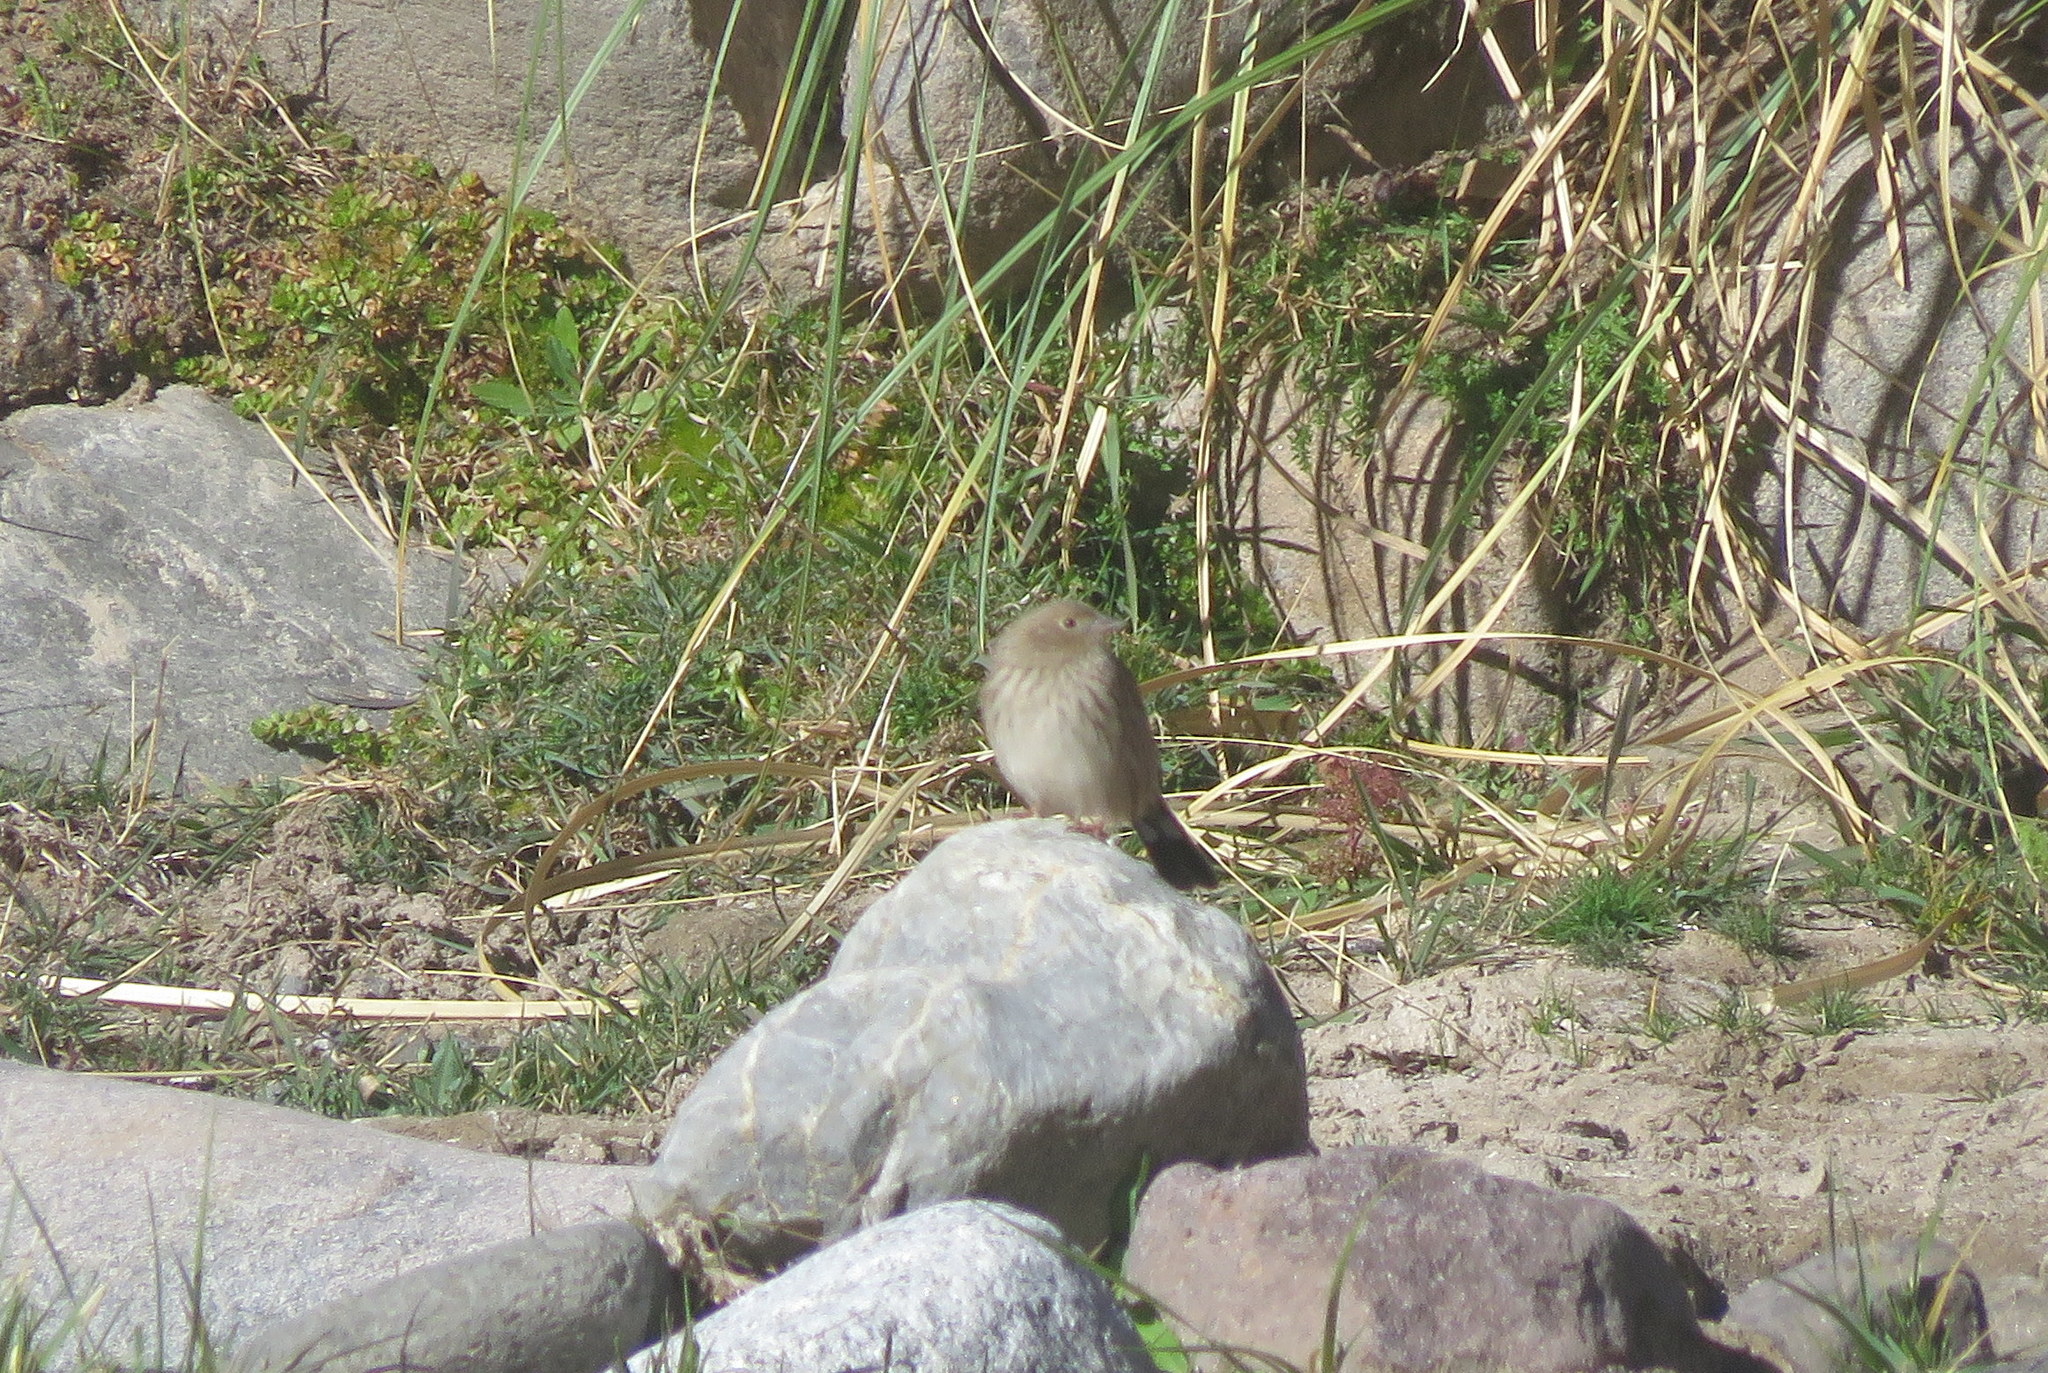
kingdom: Animalia
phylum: Chordata
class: Aves
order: Passeriformes
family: Thraupidae
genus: Porphyrospiza
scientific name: Porphyrospiza alaudina
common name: Band-tailed sierra finch
